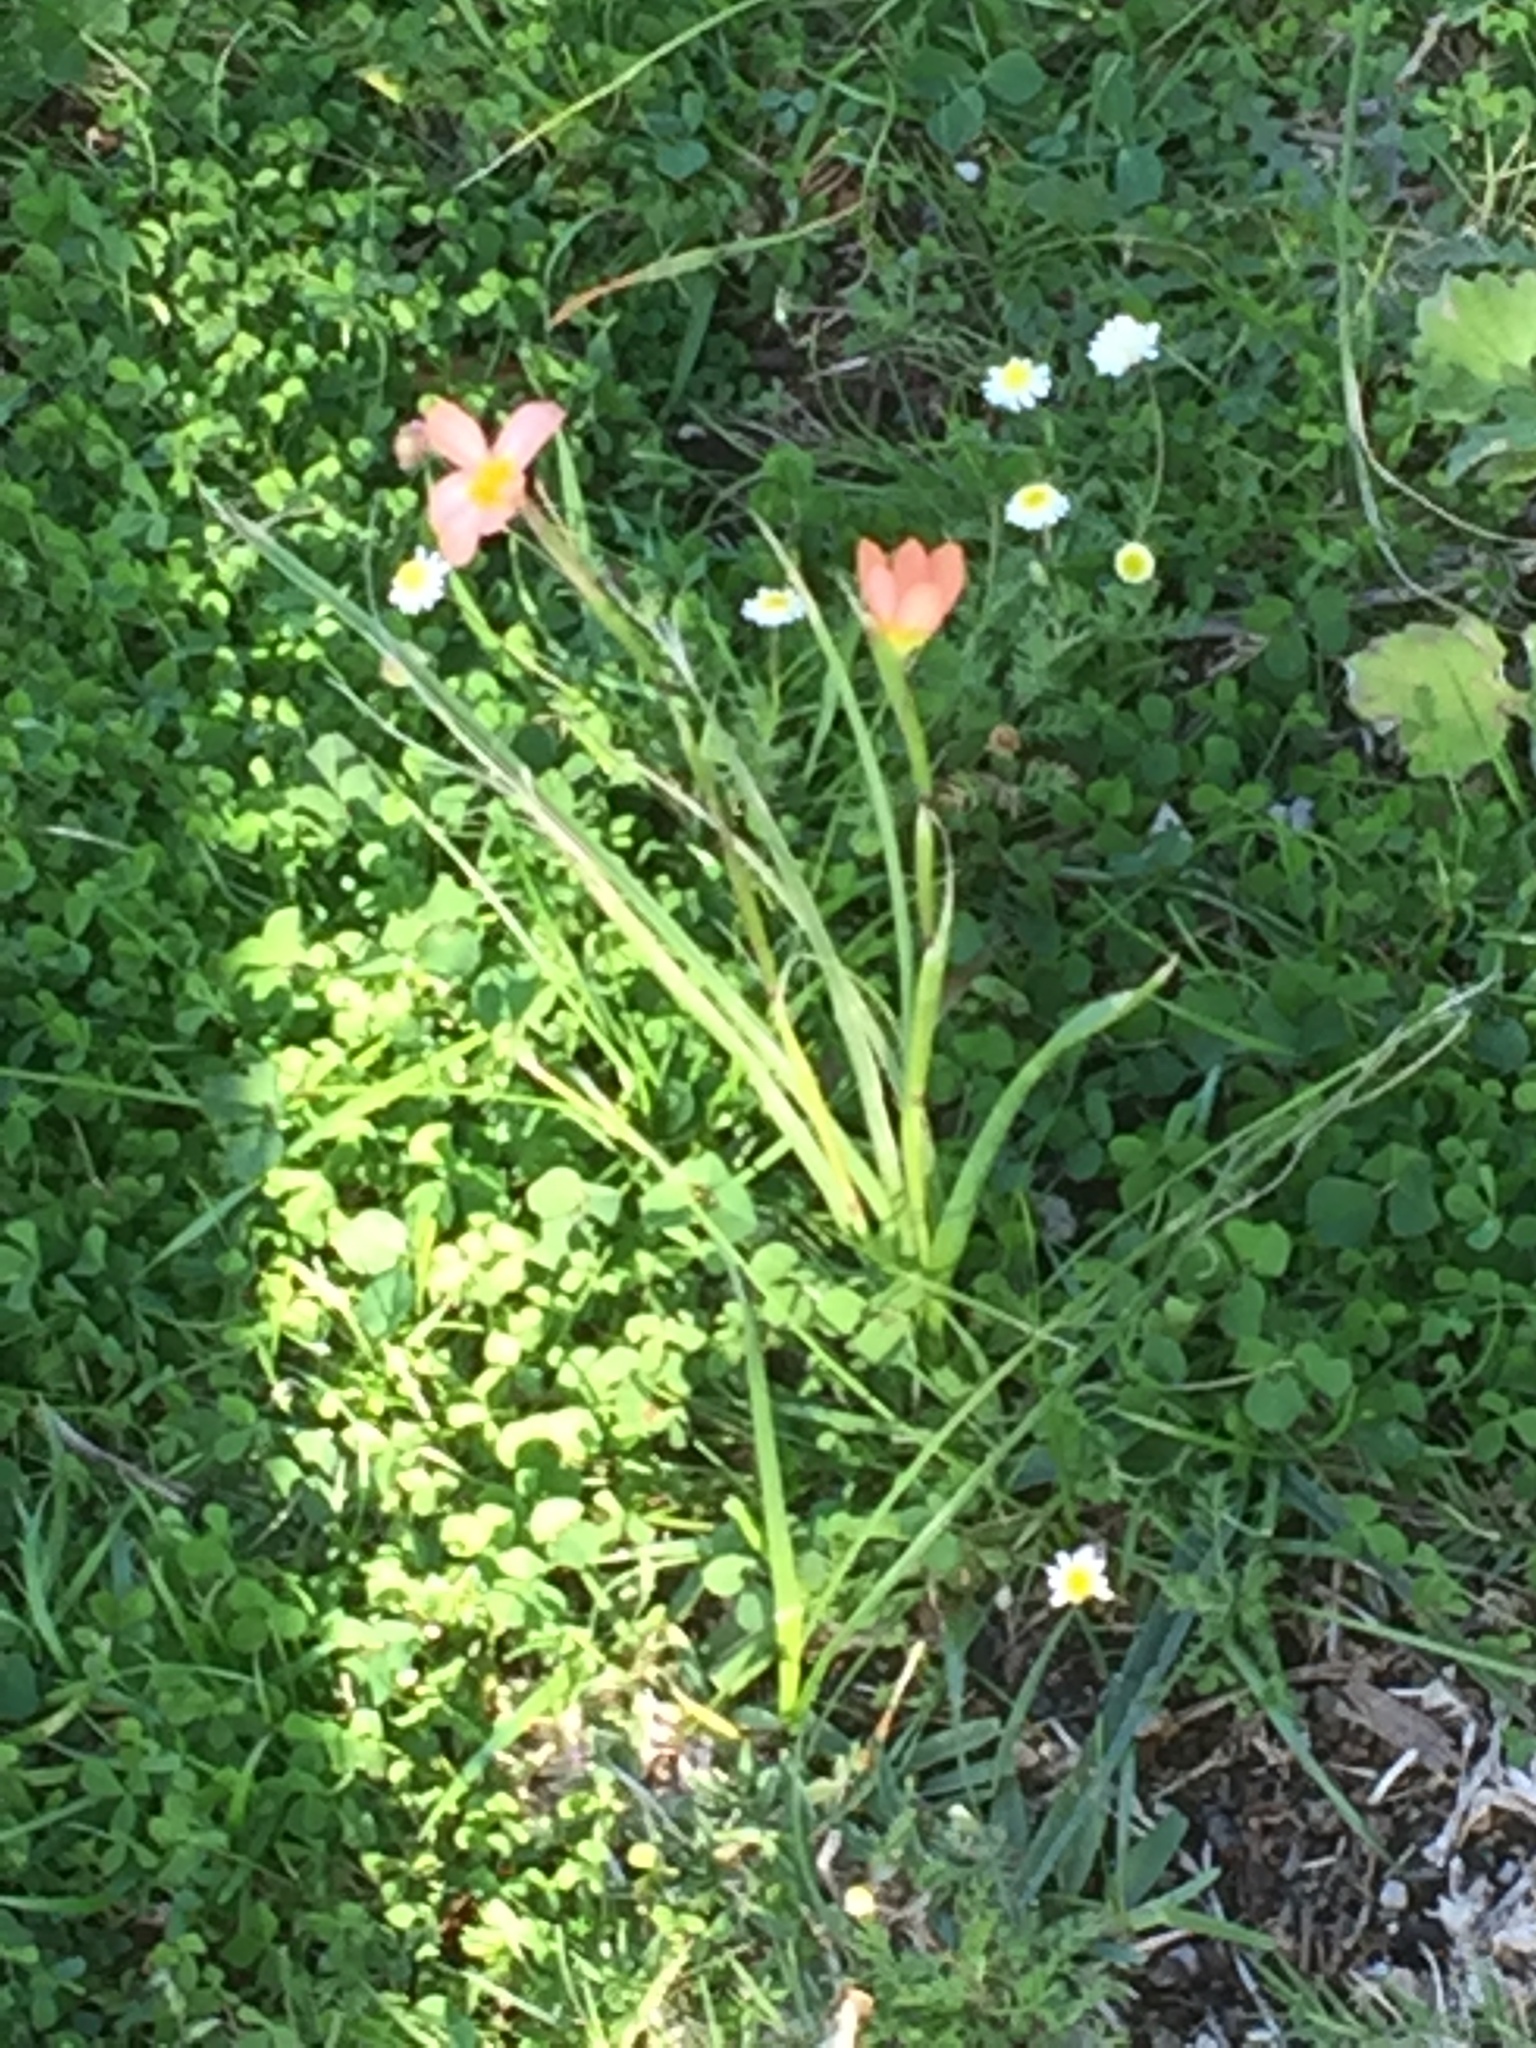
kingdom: Plantae
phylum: Tracheophyta
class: Liliopsida
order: Asparagales
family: Iridaceae
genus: Moraea
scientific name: Moraea miniata
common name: Two-leaf cape-tulip
